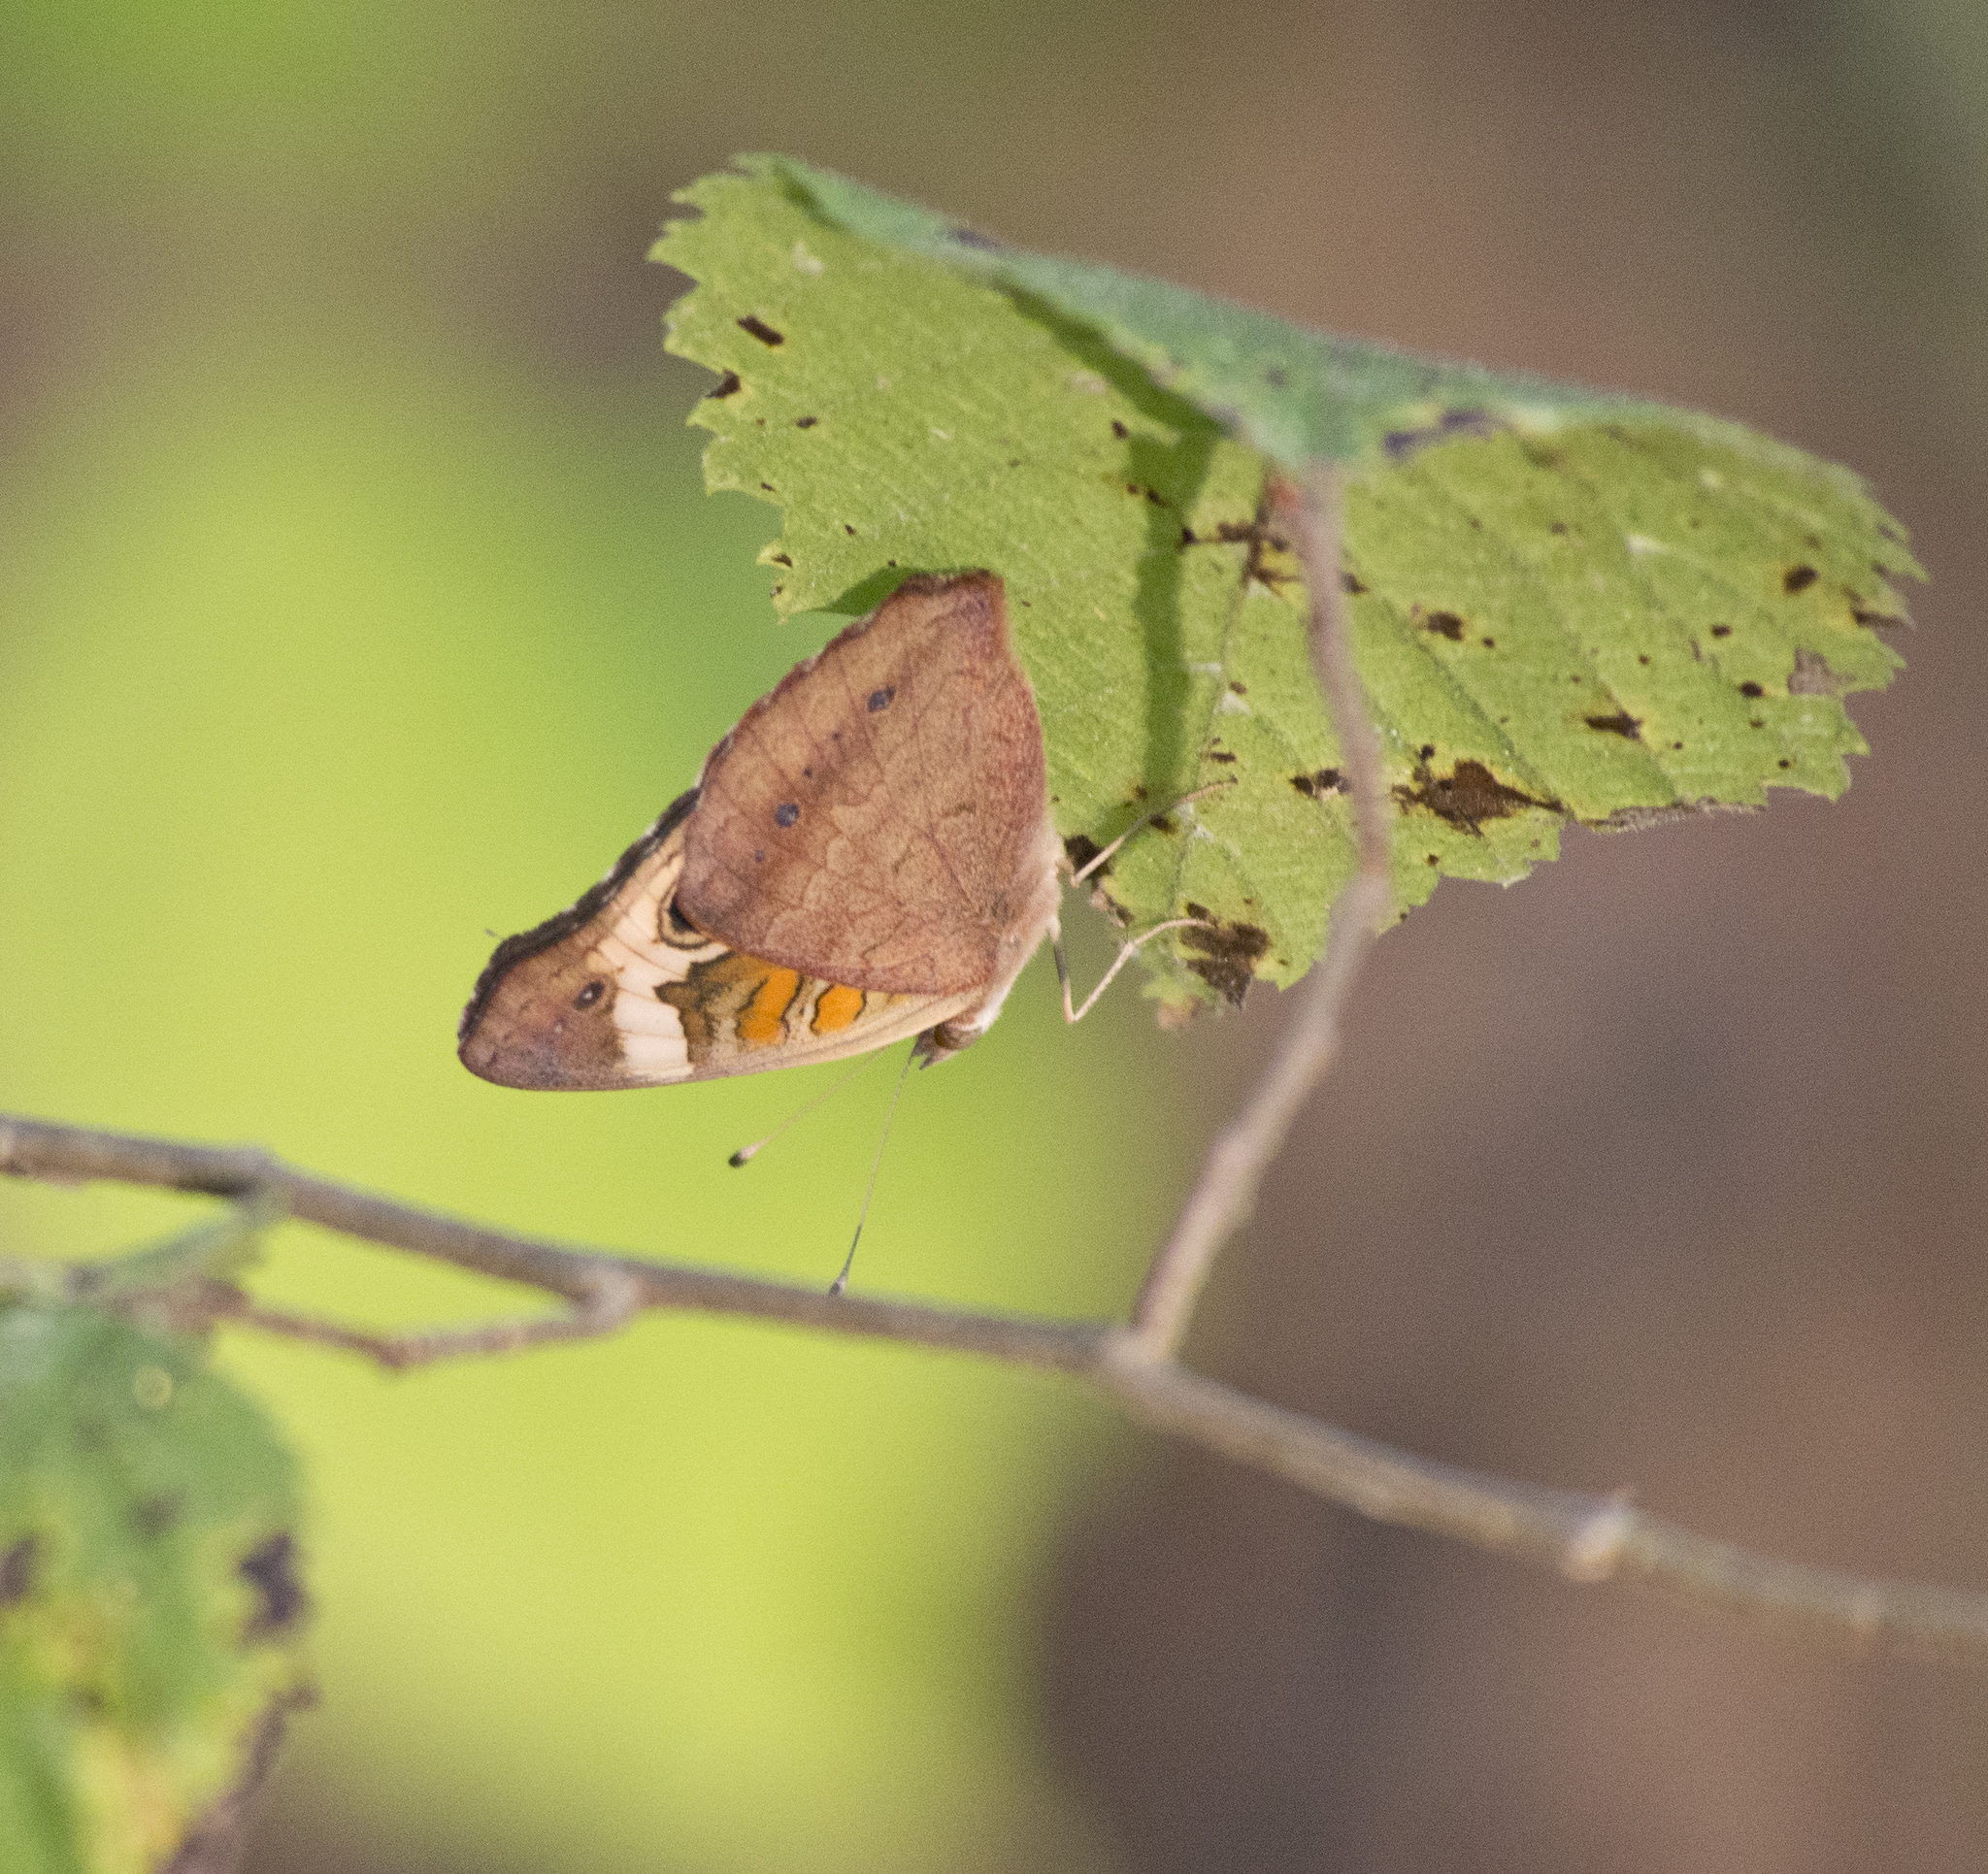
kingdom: Animalia
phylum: Arthropoda
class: Insecta
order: Lepidoptera
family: Nymphalidae
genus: Junonia
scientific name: Junonia coenia
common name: Common buckeye
